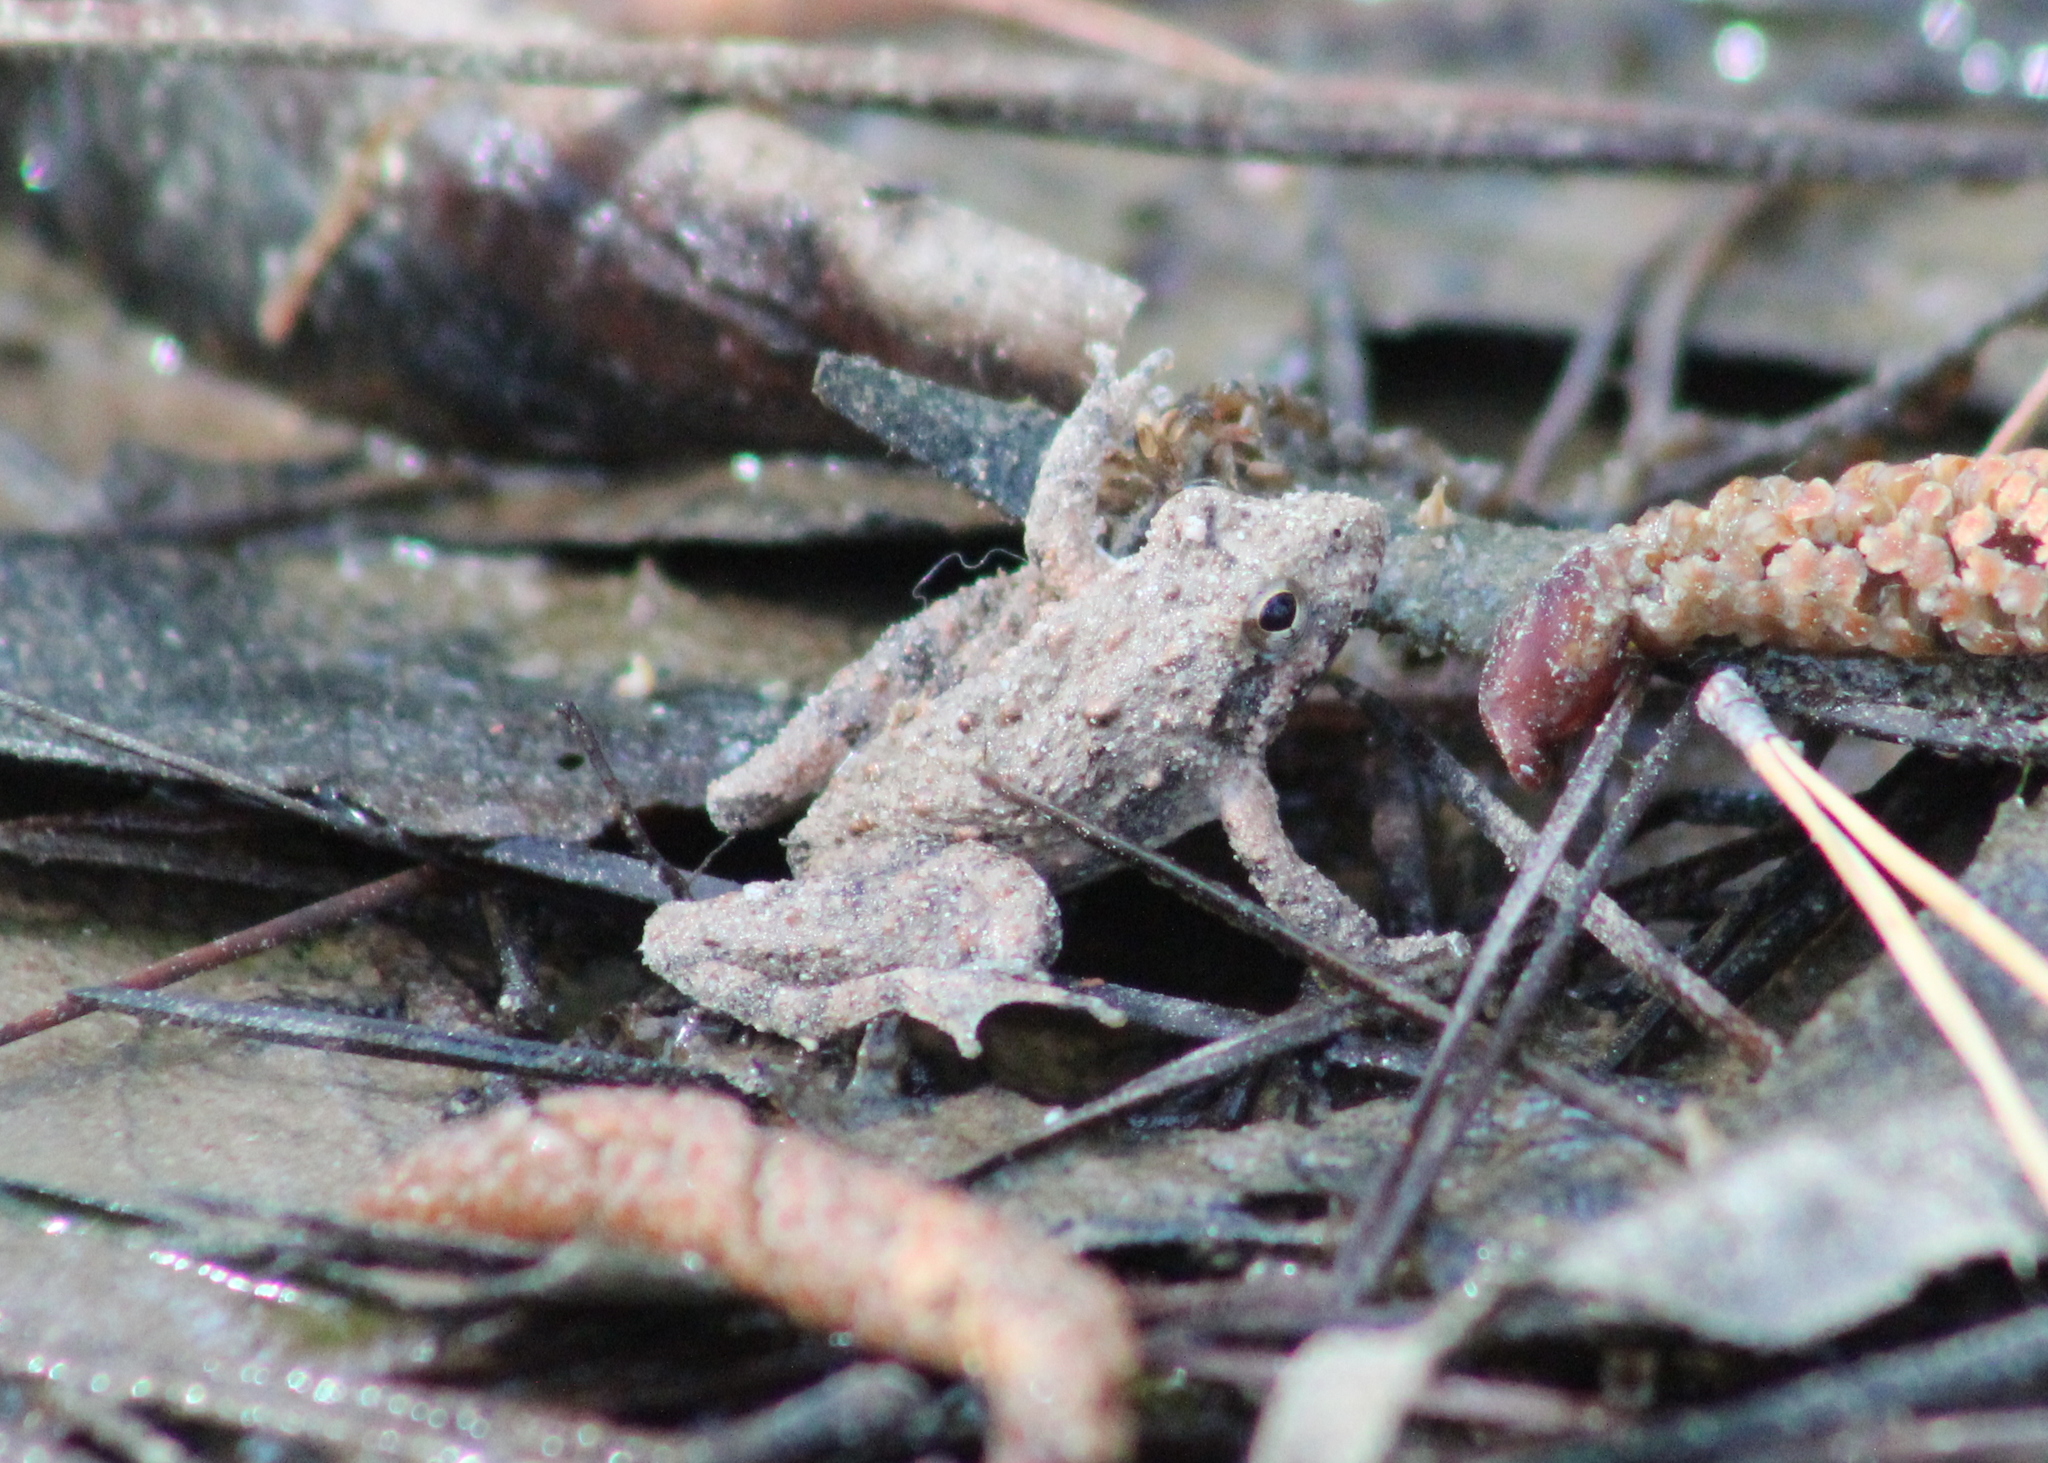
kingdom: Animalia
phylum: Chordata
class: Amphibia
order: Anura
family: Hylidae
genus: Acris
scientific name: Acris blanchardi
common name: Blanchard's cricket frog
